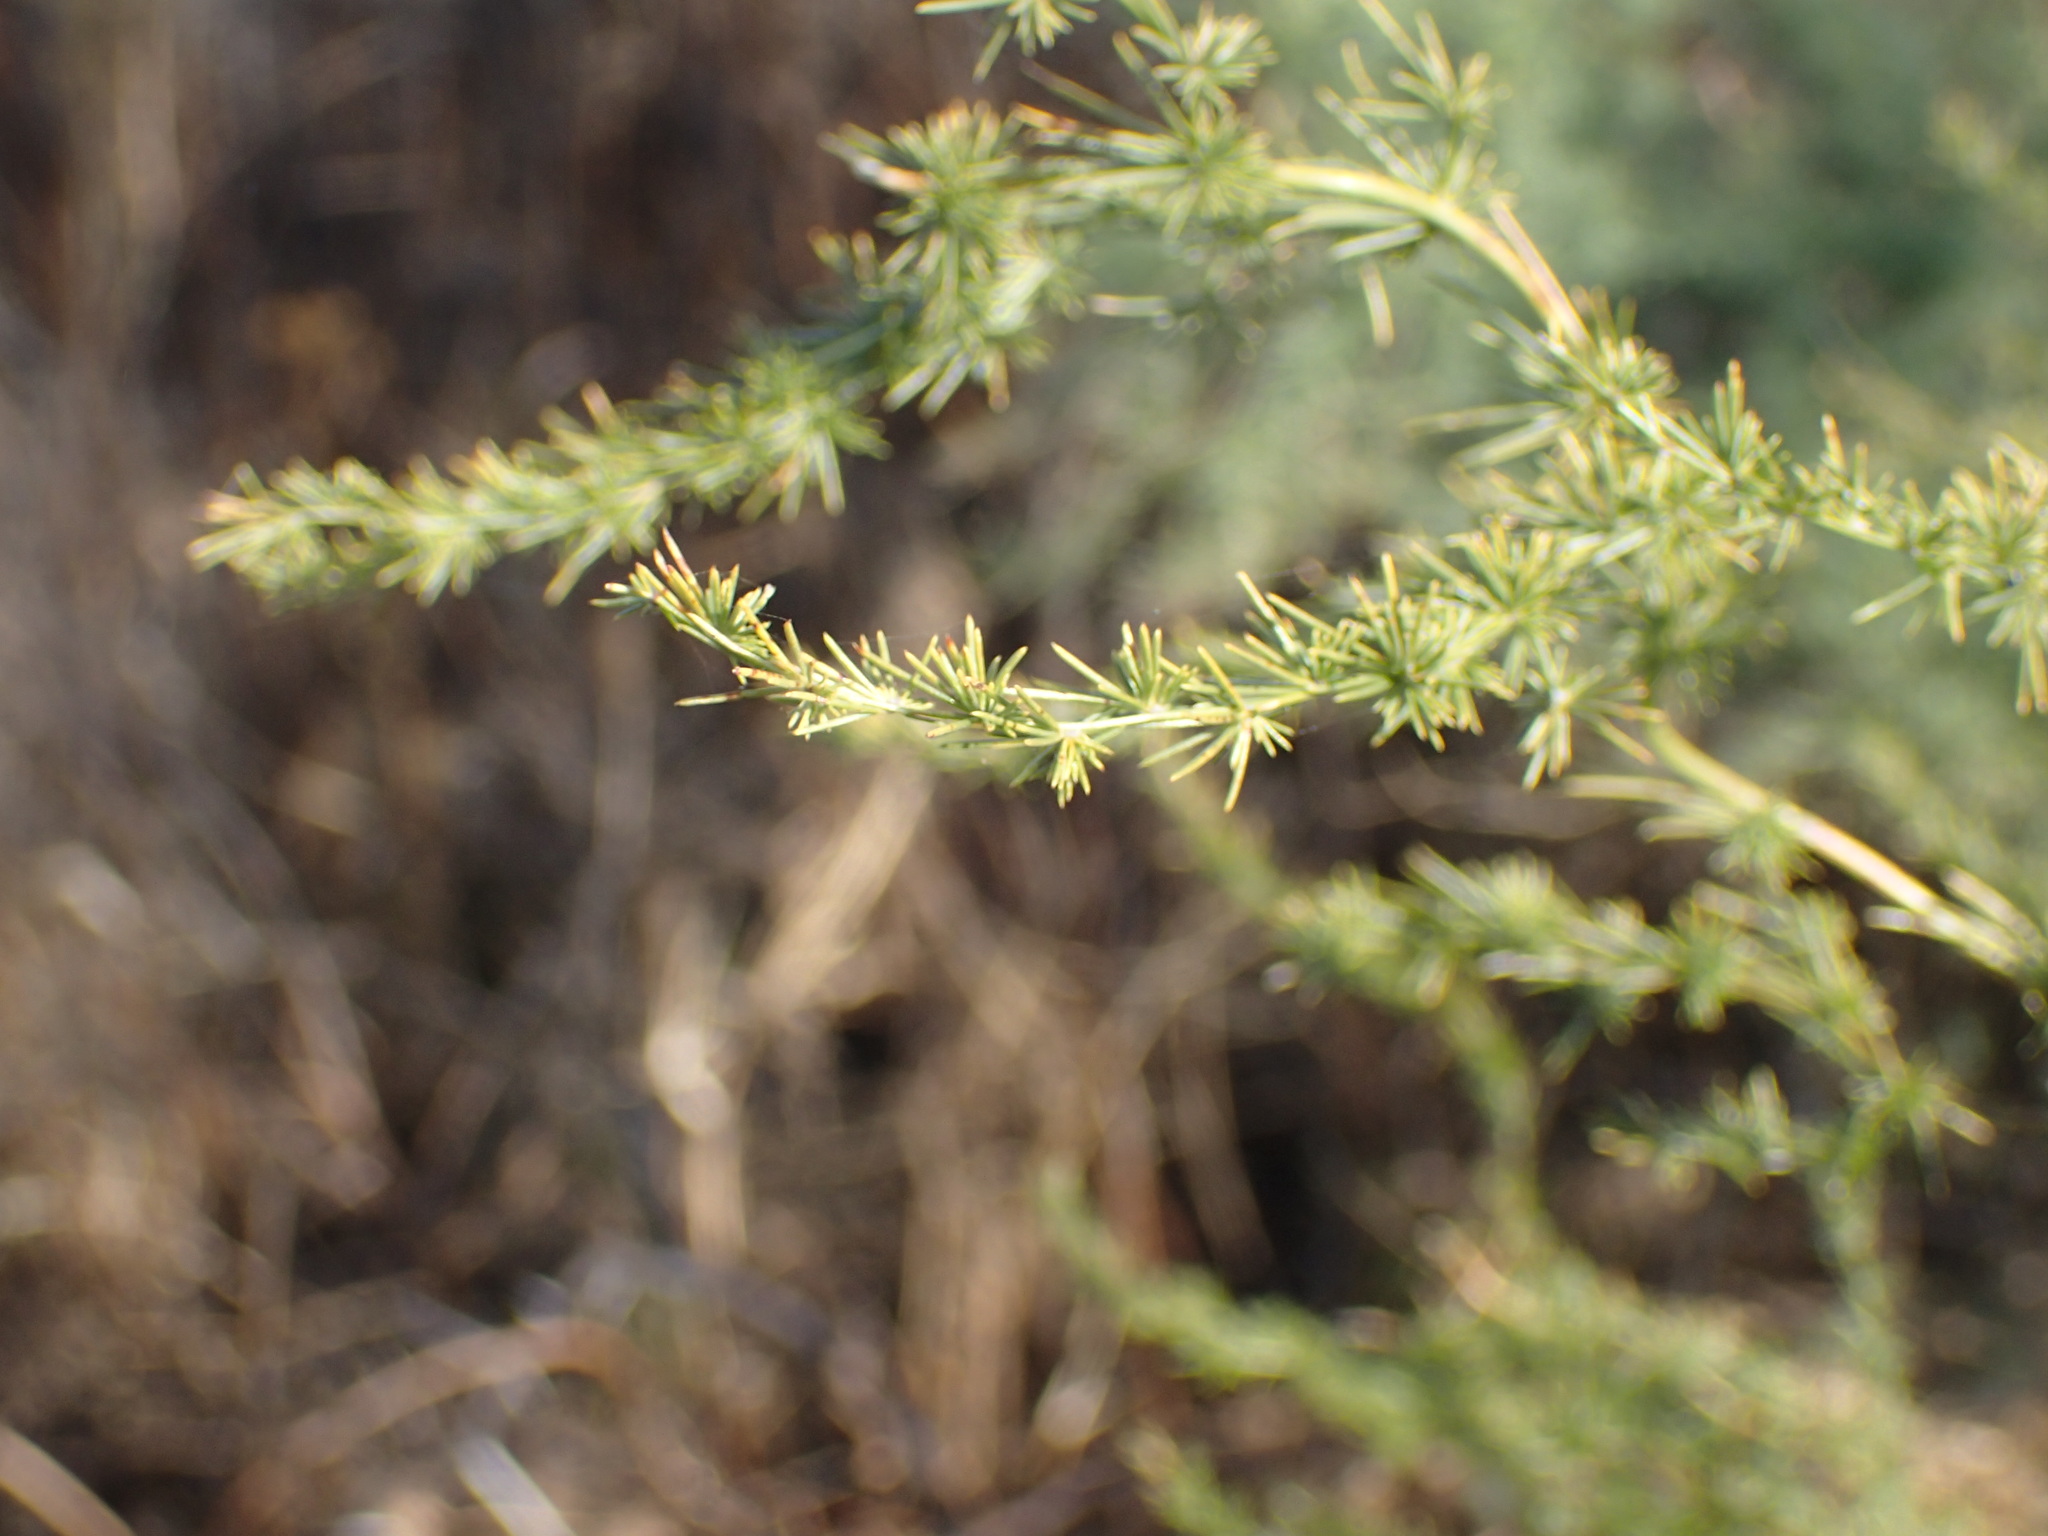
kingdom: Plantae
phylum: Tracheophyta
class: Liliopsida
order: Asparagales
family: Asparagaceae
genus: Asparagus
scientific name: Asparagus africanus
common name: Asparagus-fern
